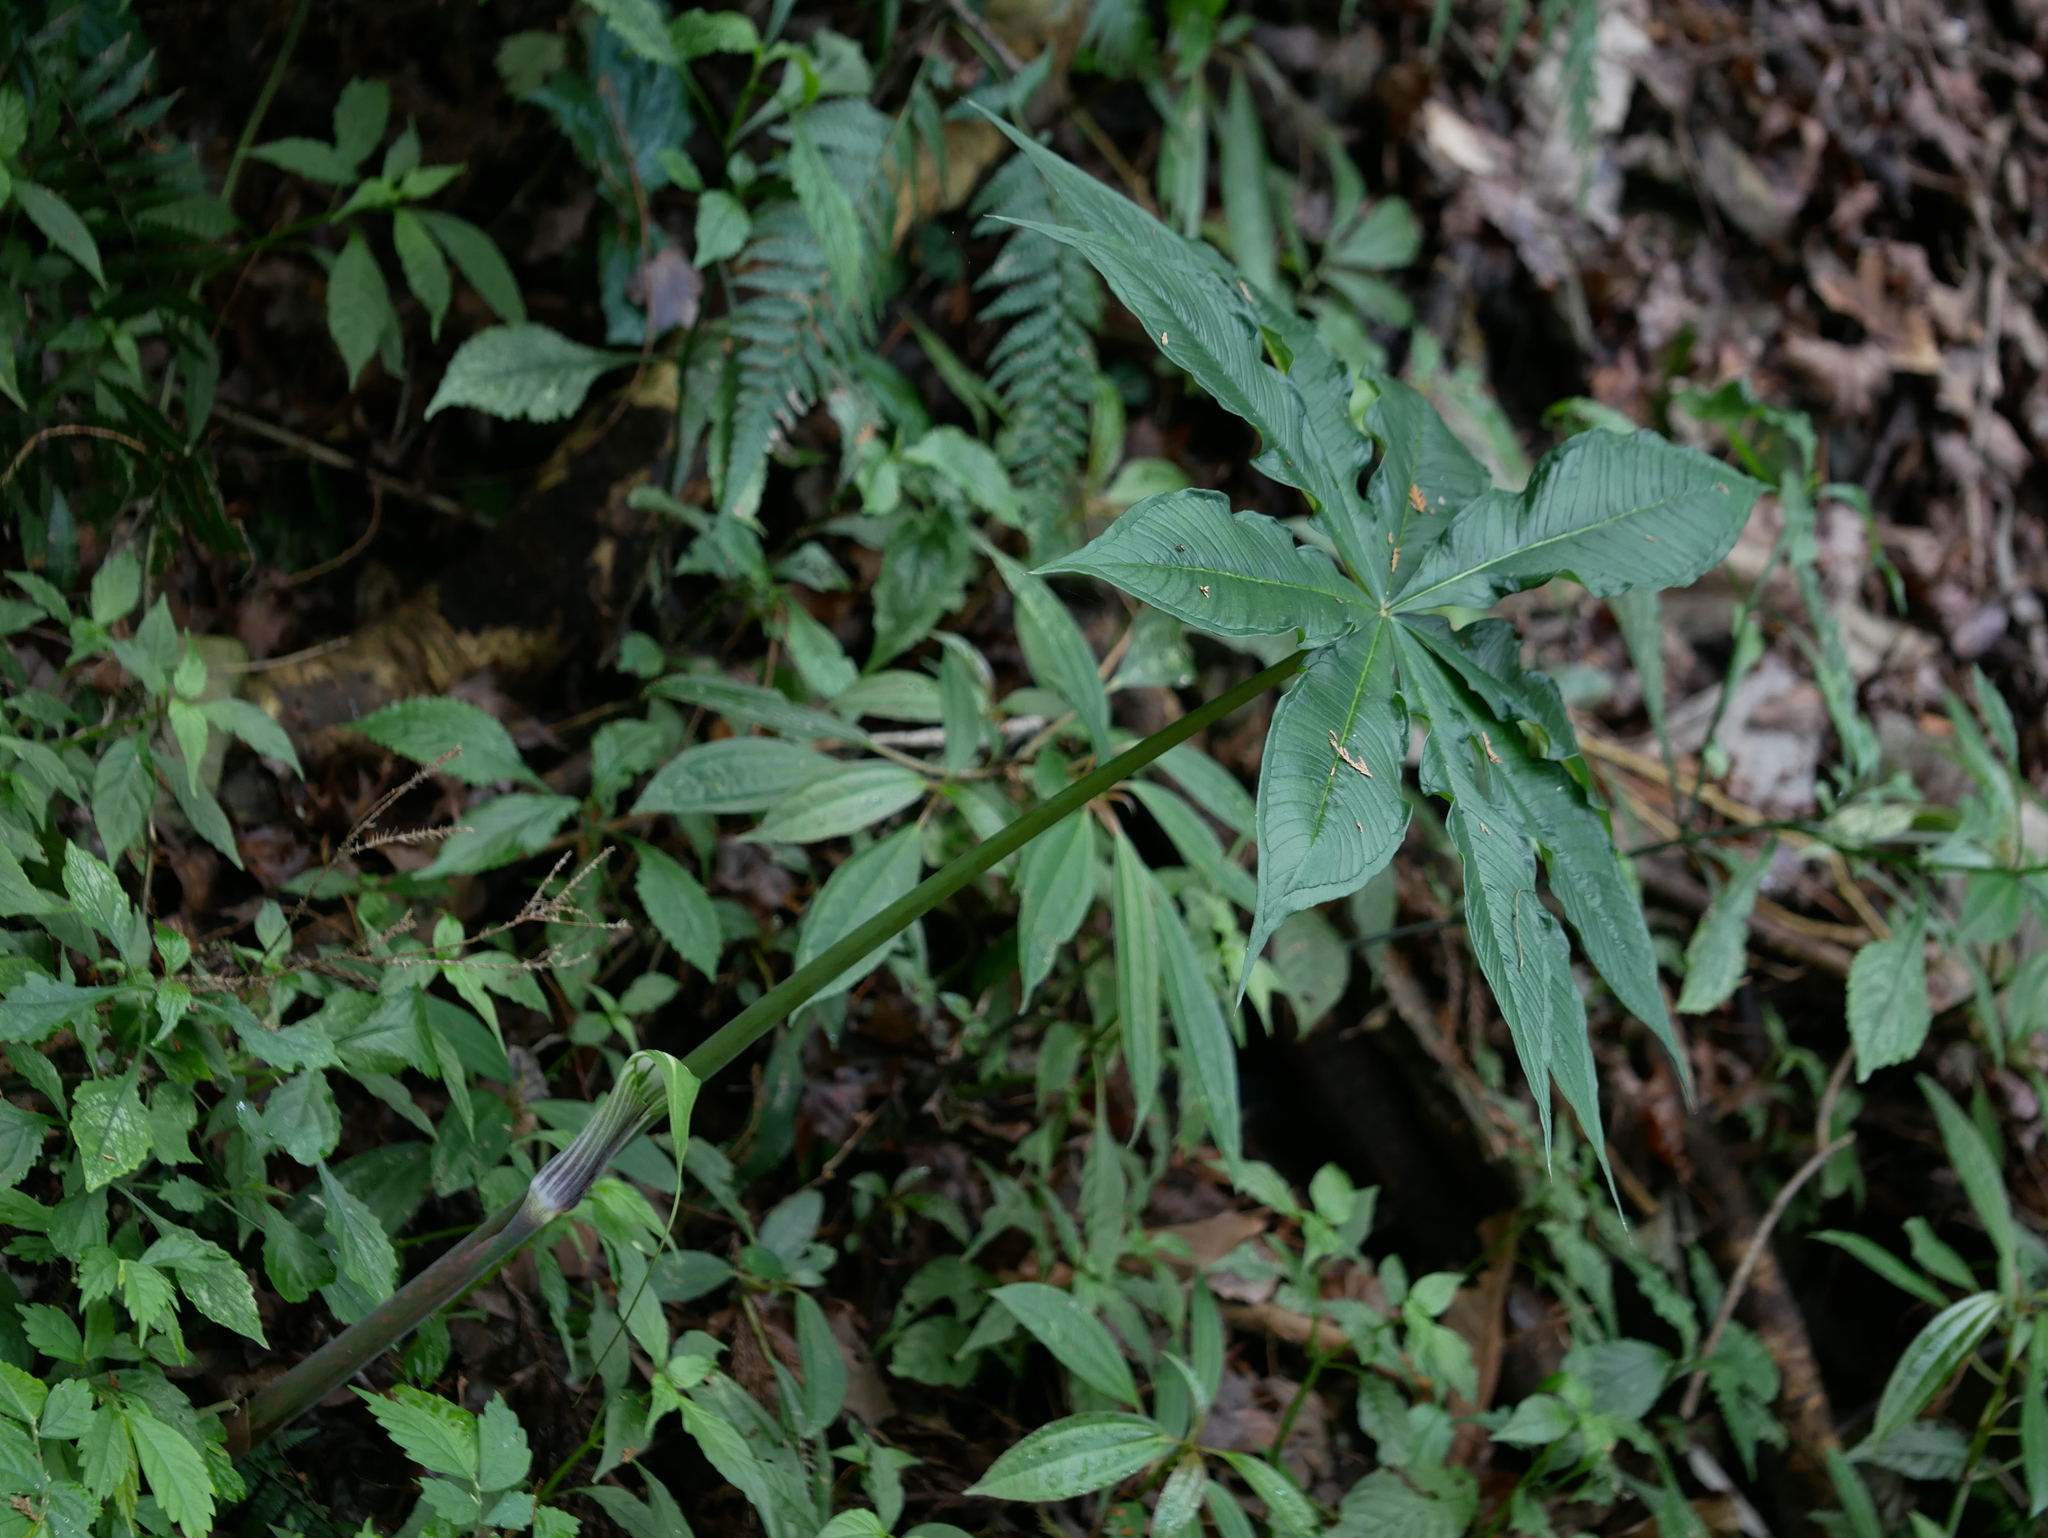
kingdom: Plantae
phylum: Tracheophyta
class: Liliopsida
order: Alismatales
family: Araceae
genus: Arisaema
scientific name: Arisaema formosanum
